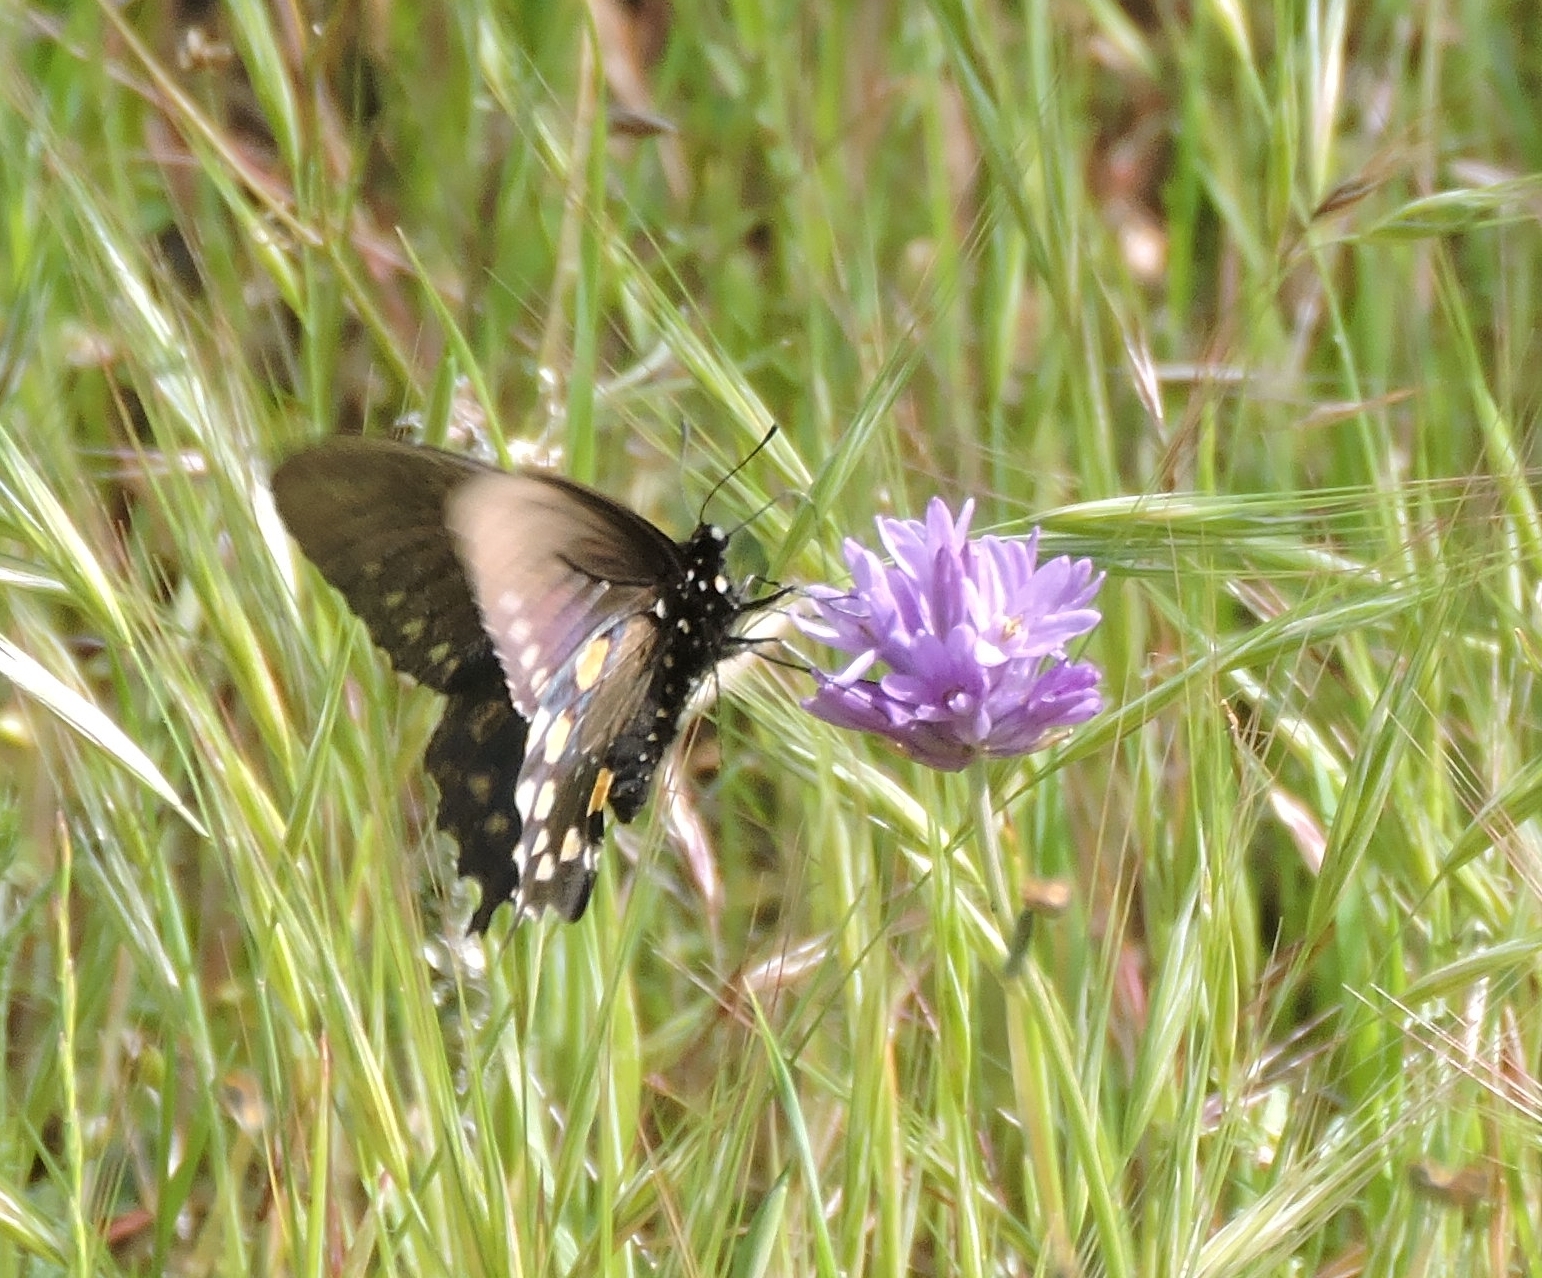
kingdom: Animalia
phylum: Arthropoda
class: Insecta
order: Lepidoptera
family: Papilionidae
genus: Battus
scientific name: Battus philenor
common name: Pipevine swallowtail
